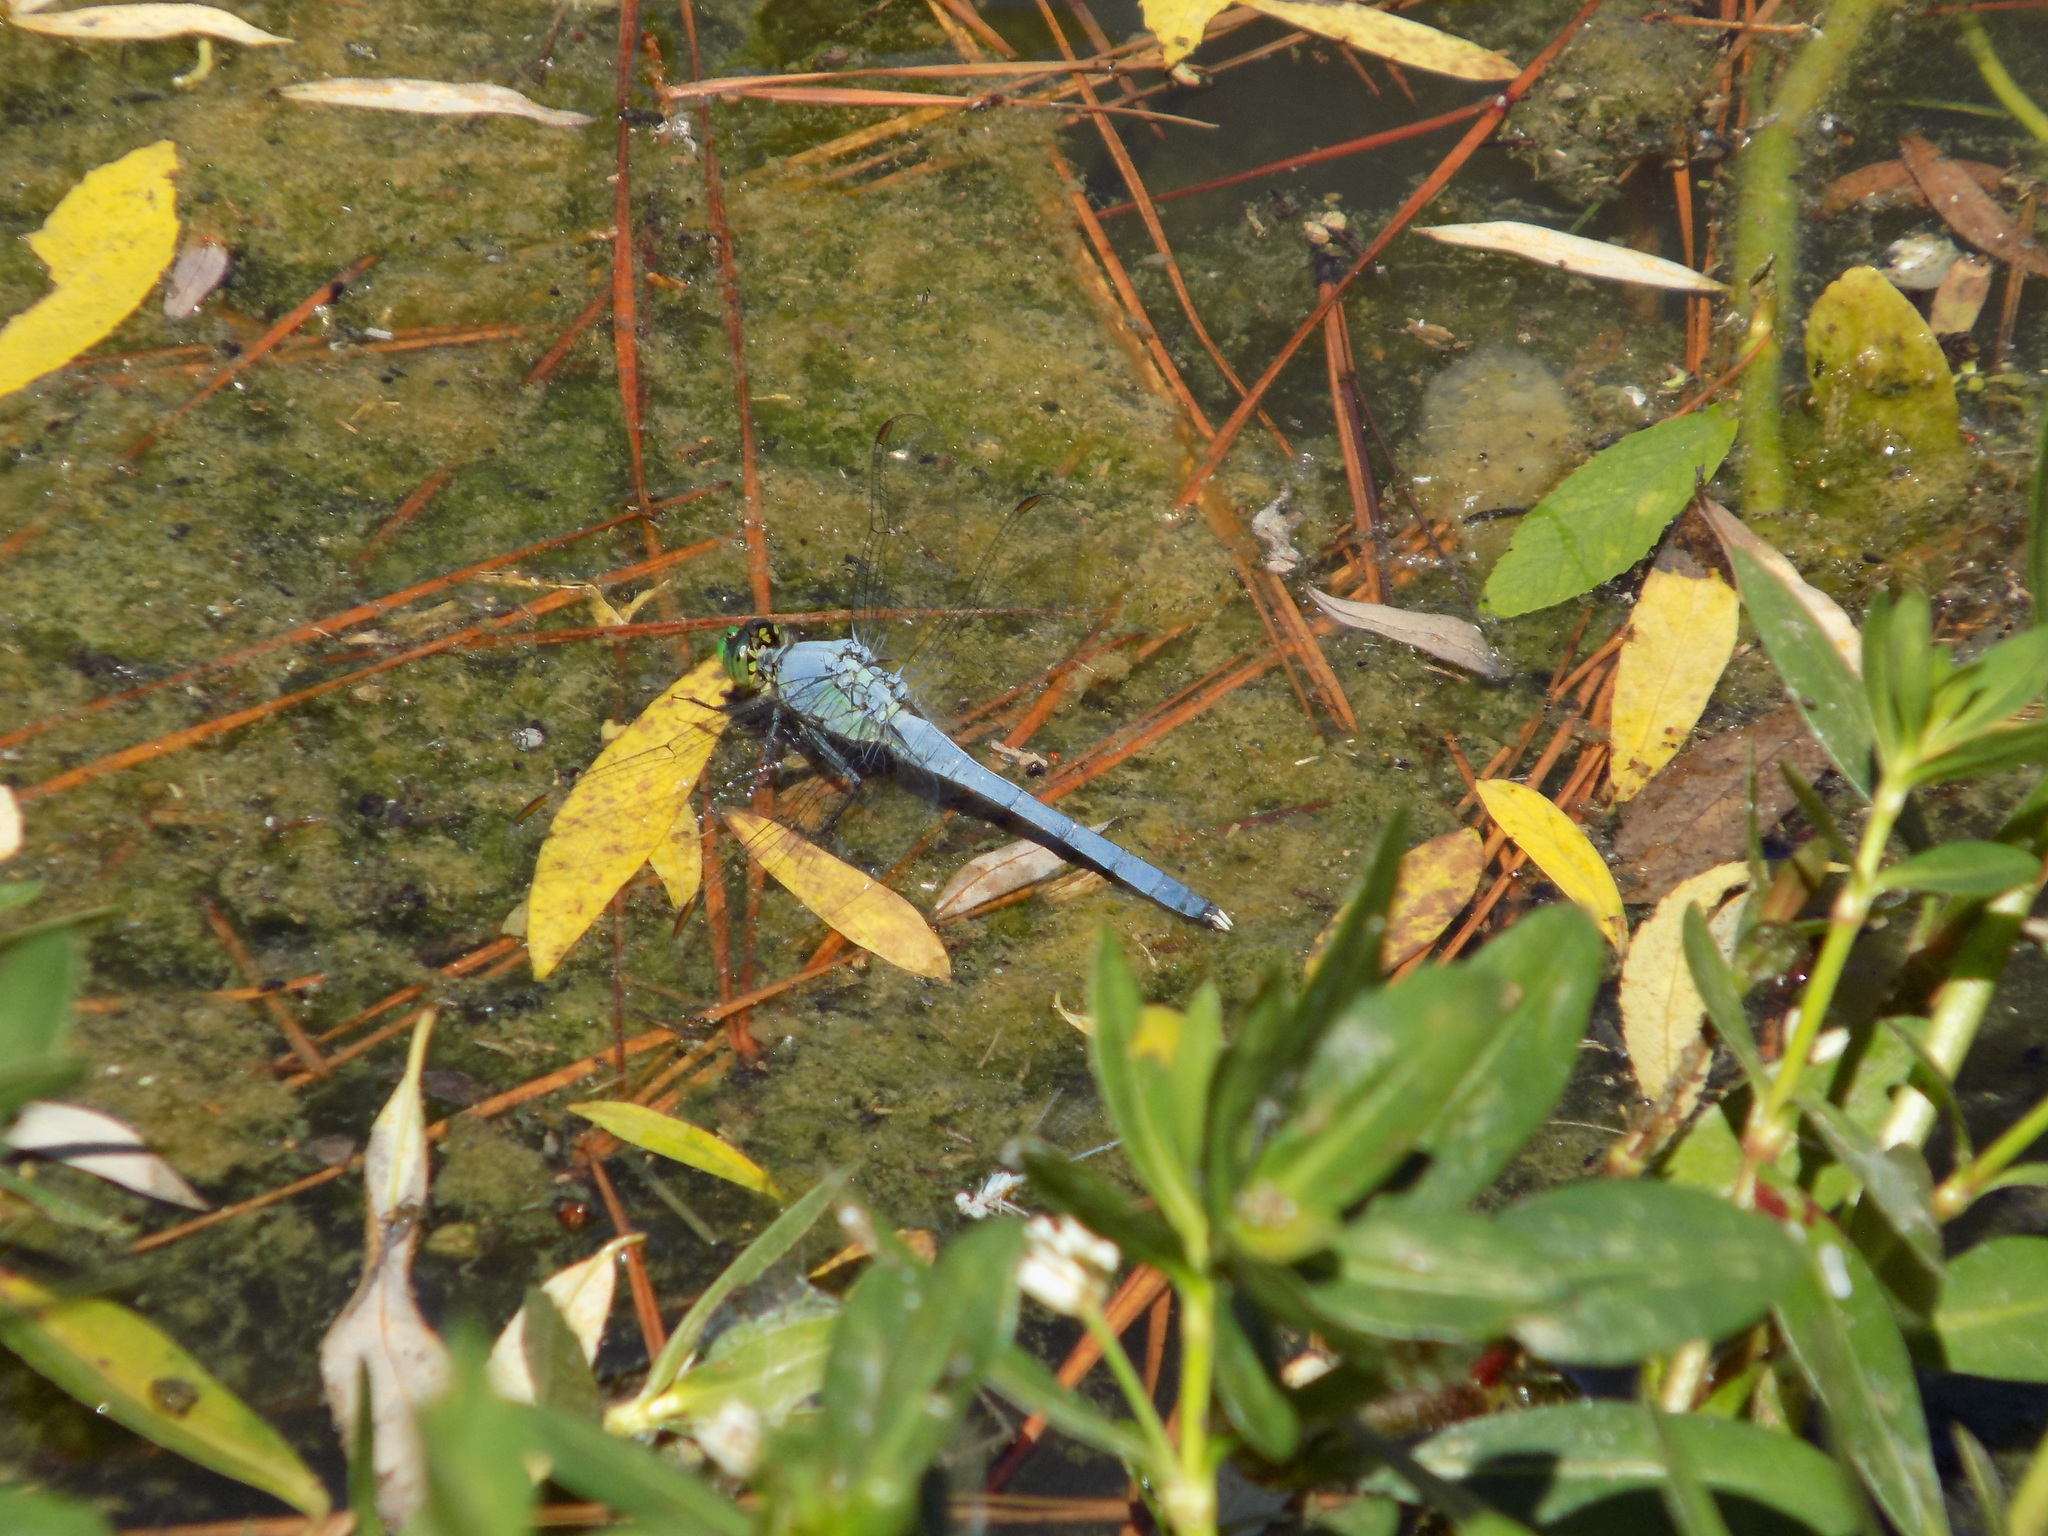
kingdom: Animalia
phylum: Arthropoda
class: Insecta
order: Odonata
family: Libellulidae
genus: Erythemis
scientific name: Erythemis simplicicollis
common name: Eastern pondhawk
